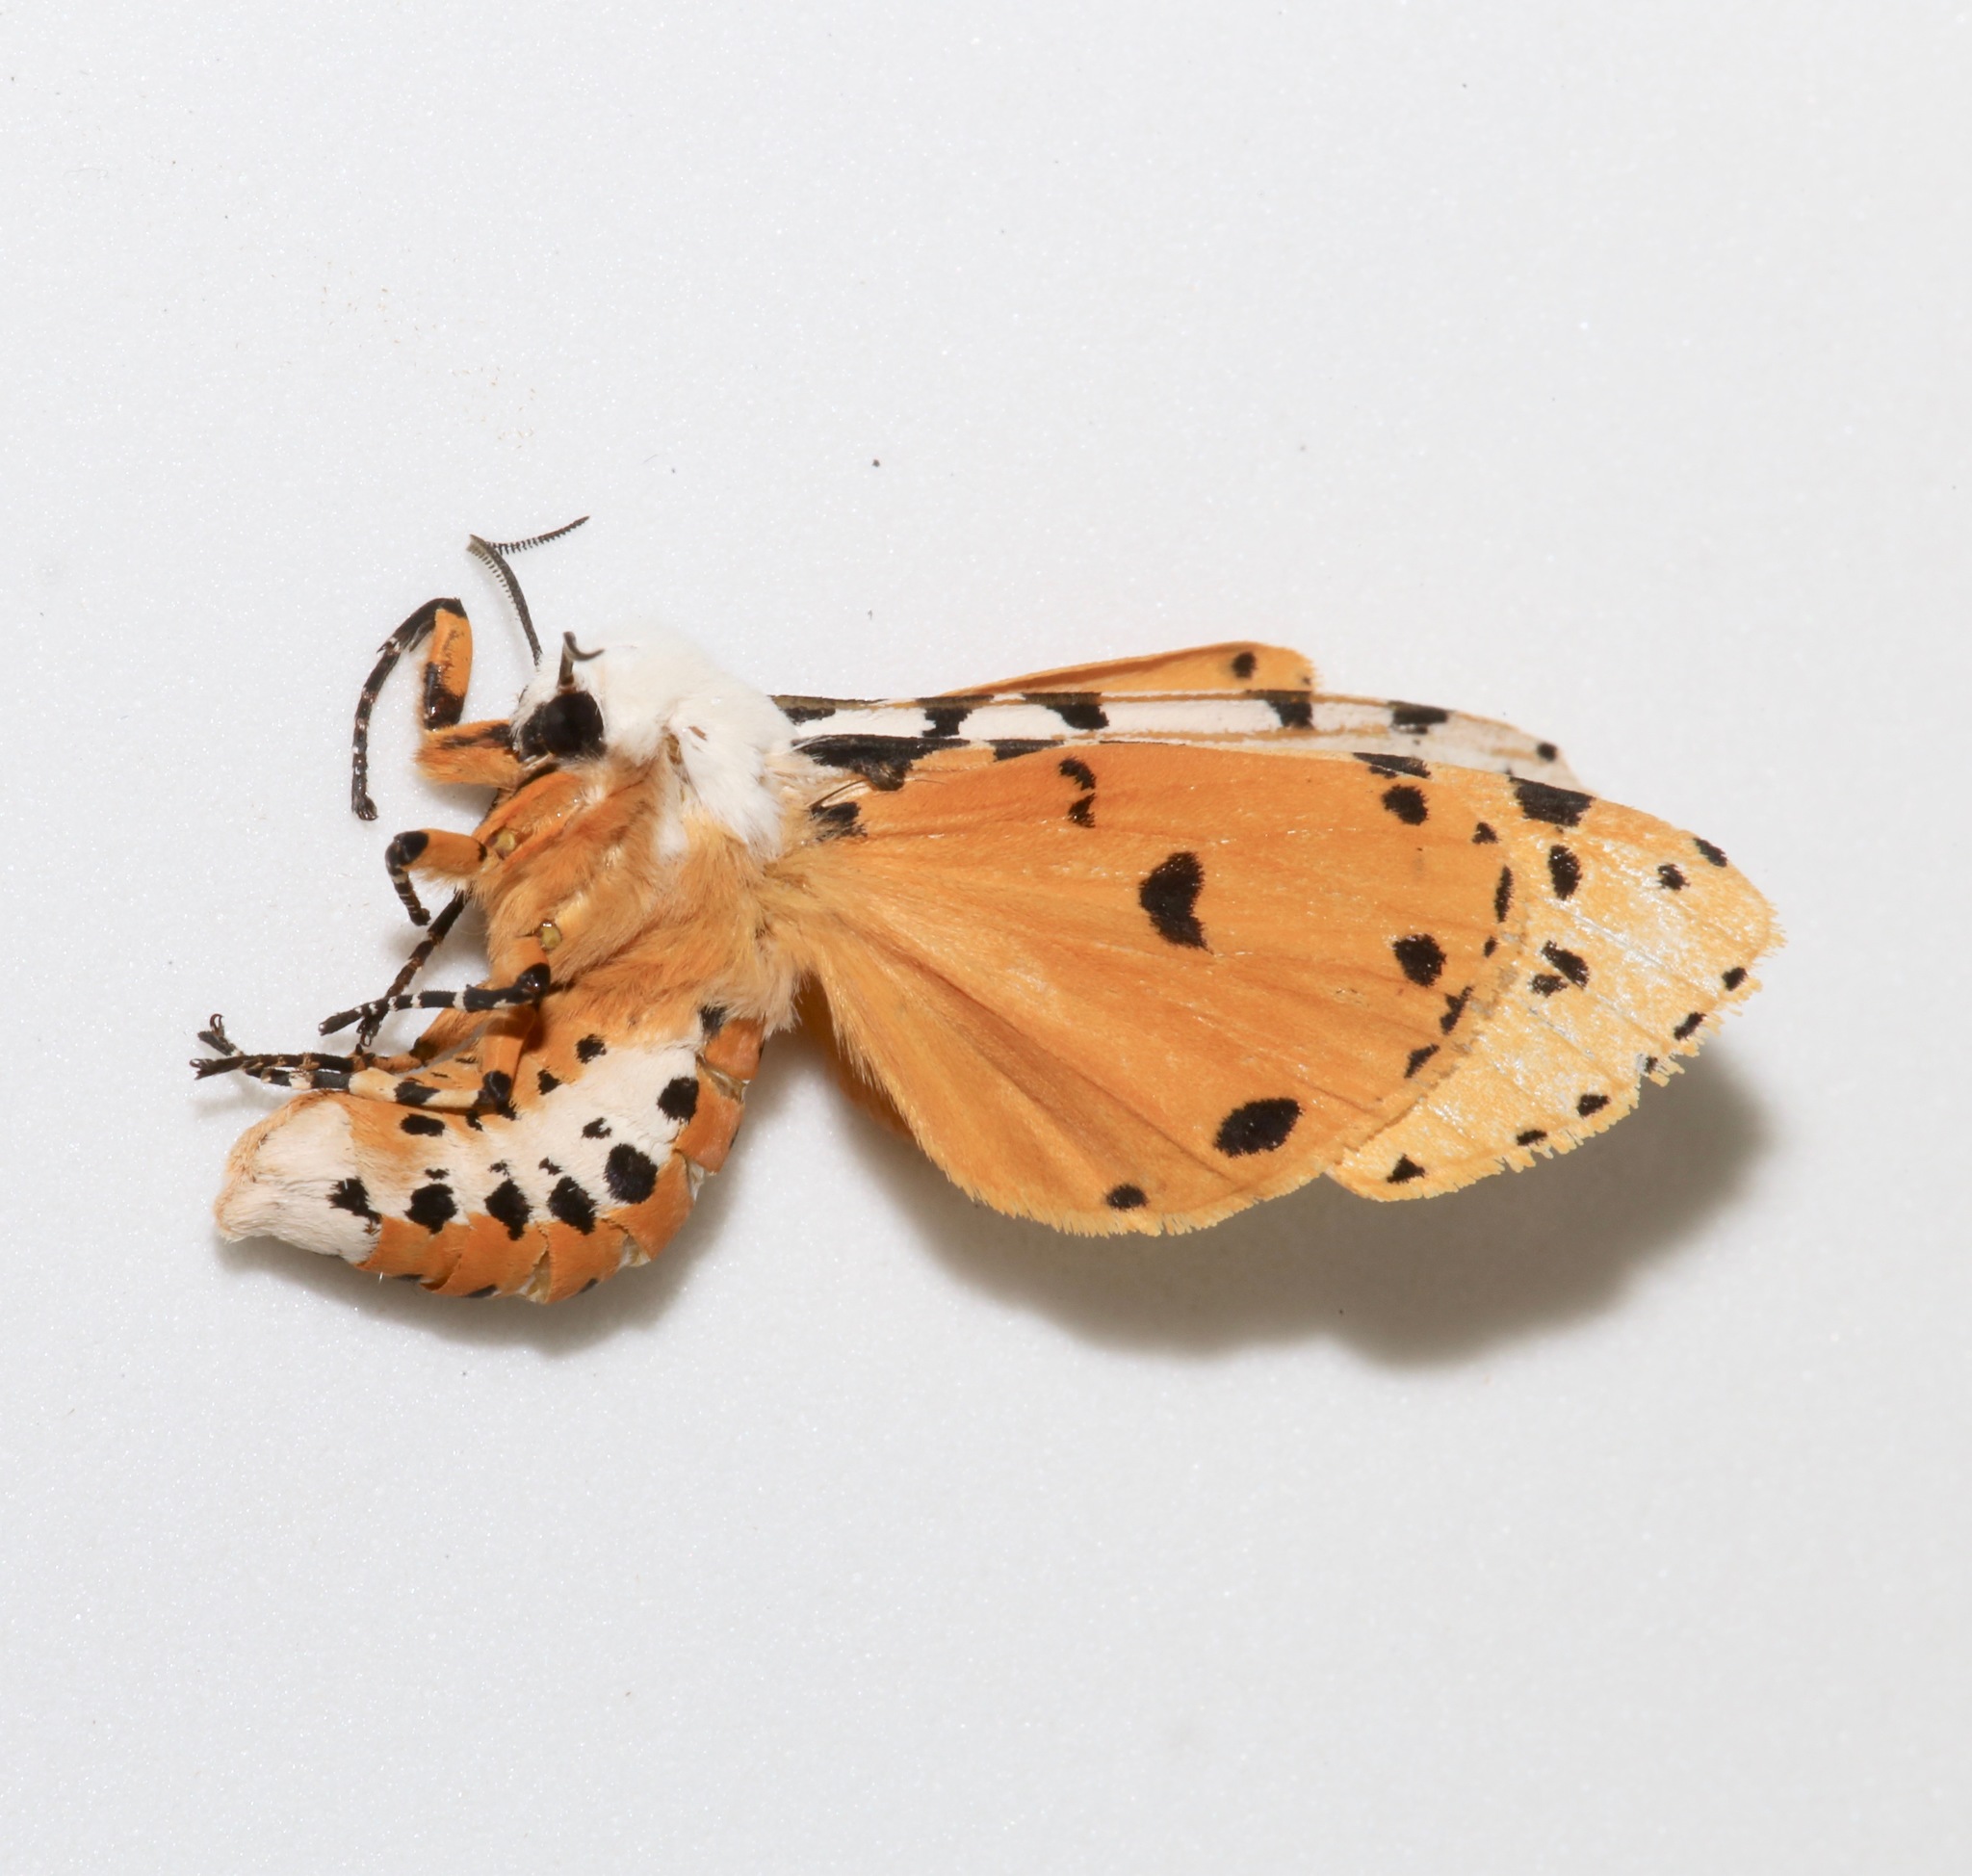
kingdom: Animalia
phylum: Arthropoda
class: Insecta
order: Lepidoptera
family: Erebidae
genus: Estigmene
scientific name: Estigmene acrea
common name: Salt marsh moth
